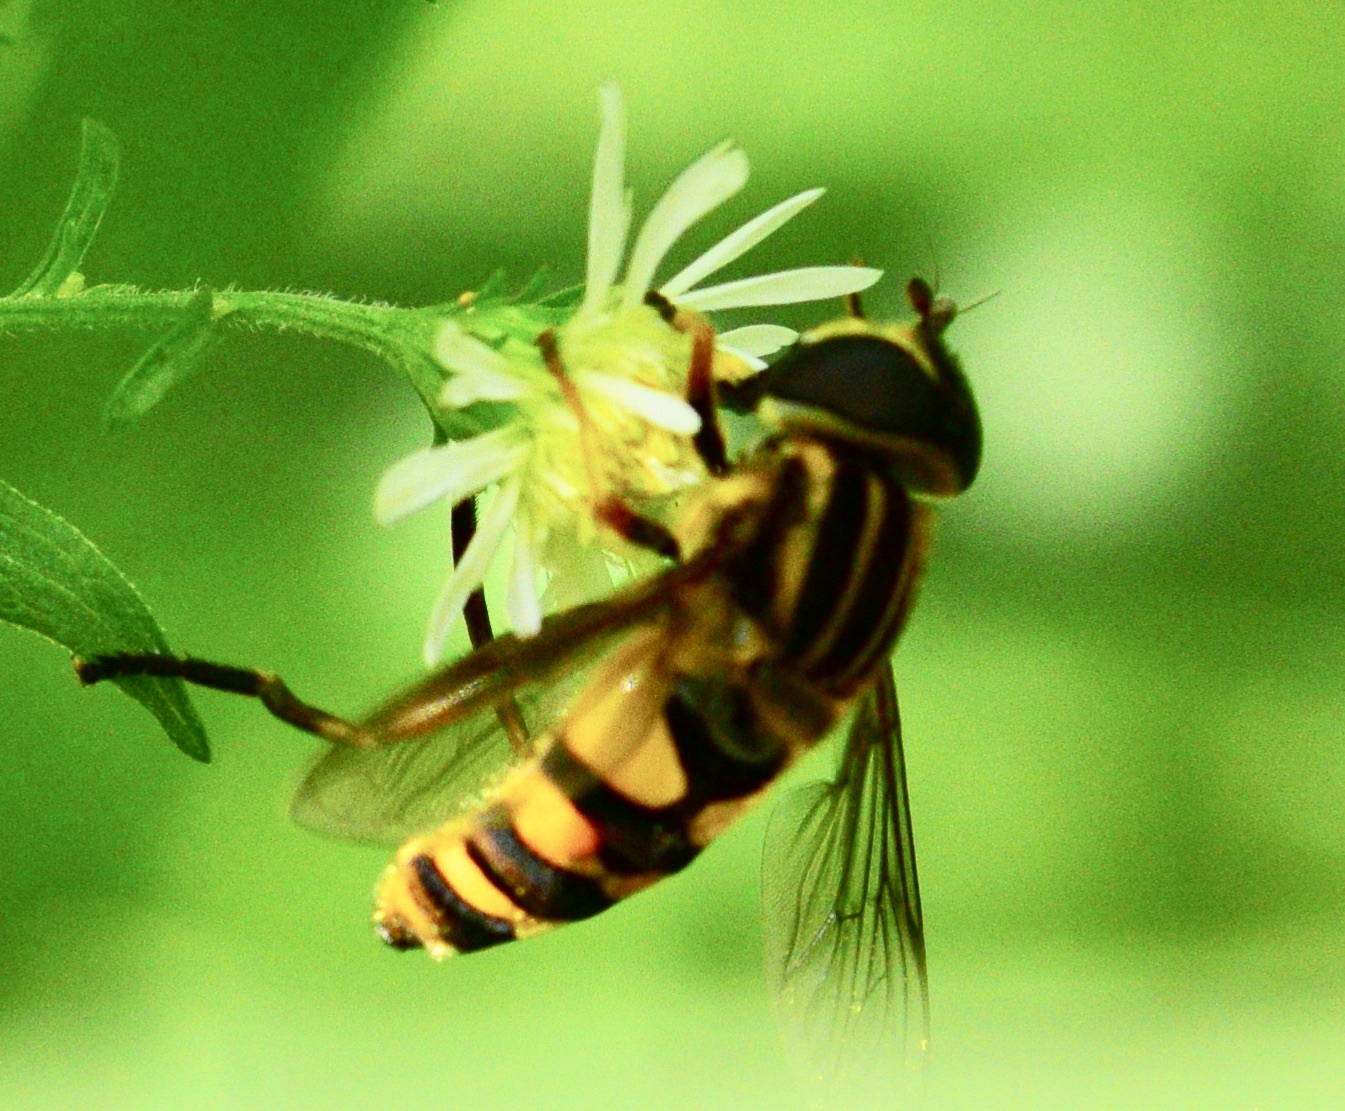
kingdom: Animalia
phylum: Arthropoda
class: Insecta
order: Diptera
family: Syrphidae
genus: Helophilus
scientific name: Helophilus fasciatus
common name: Narrow-headed marsh fly
